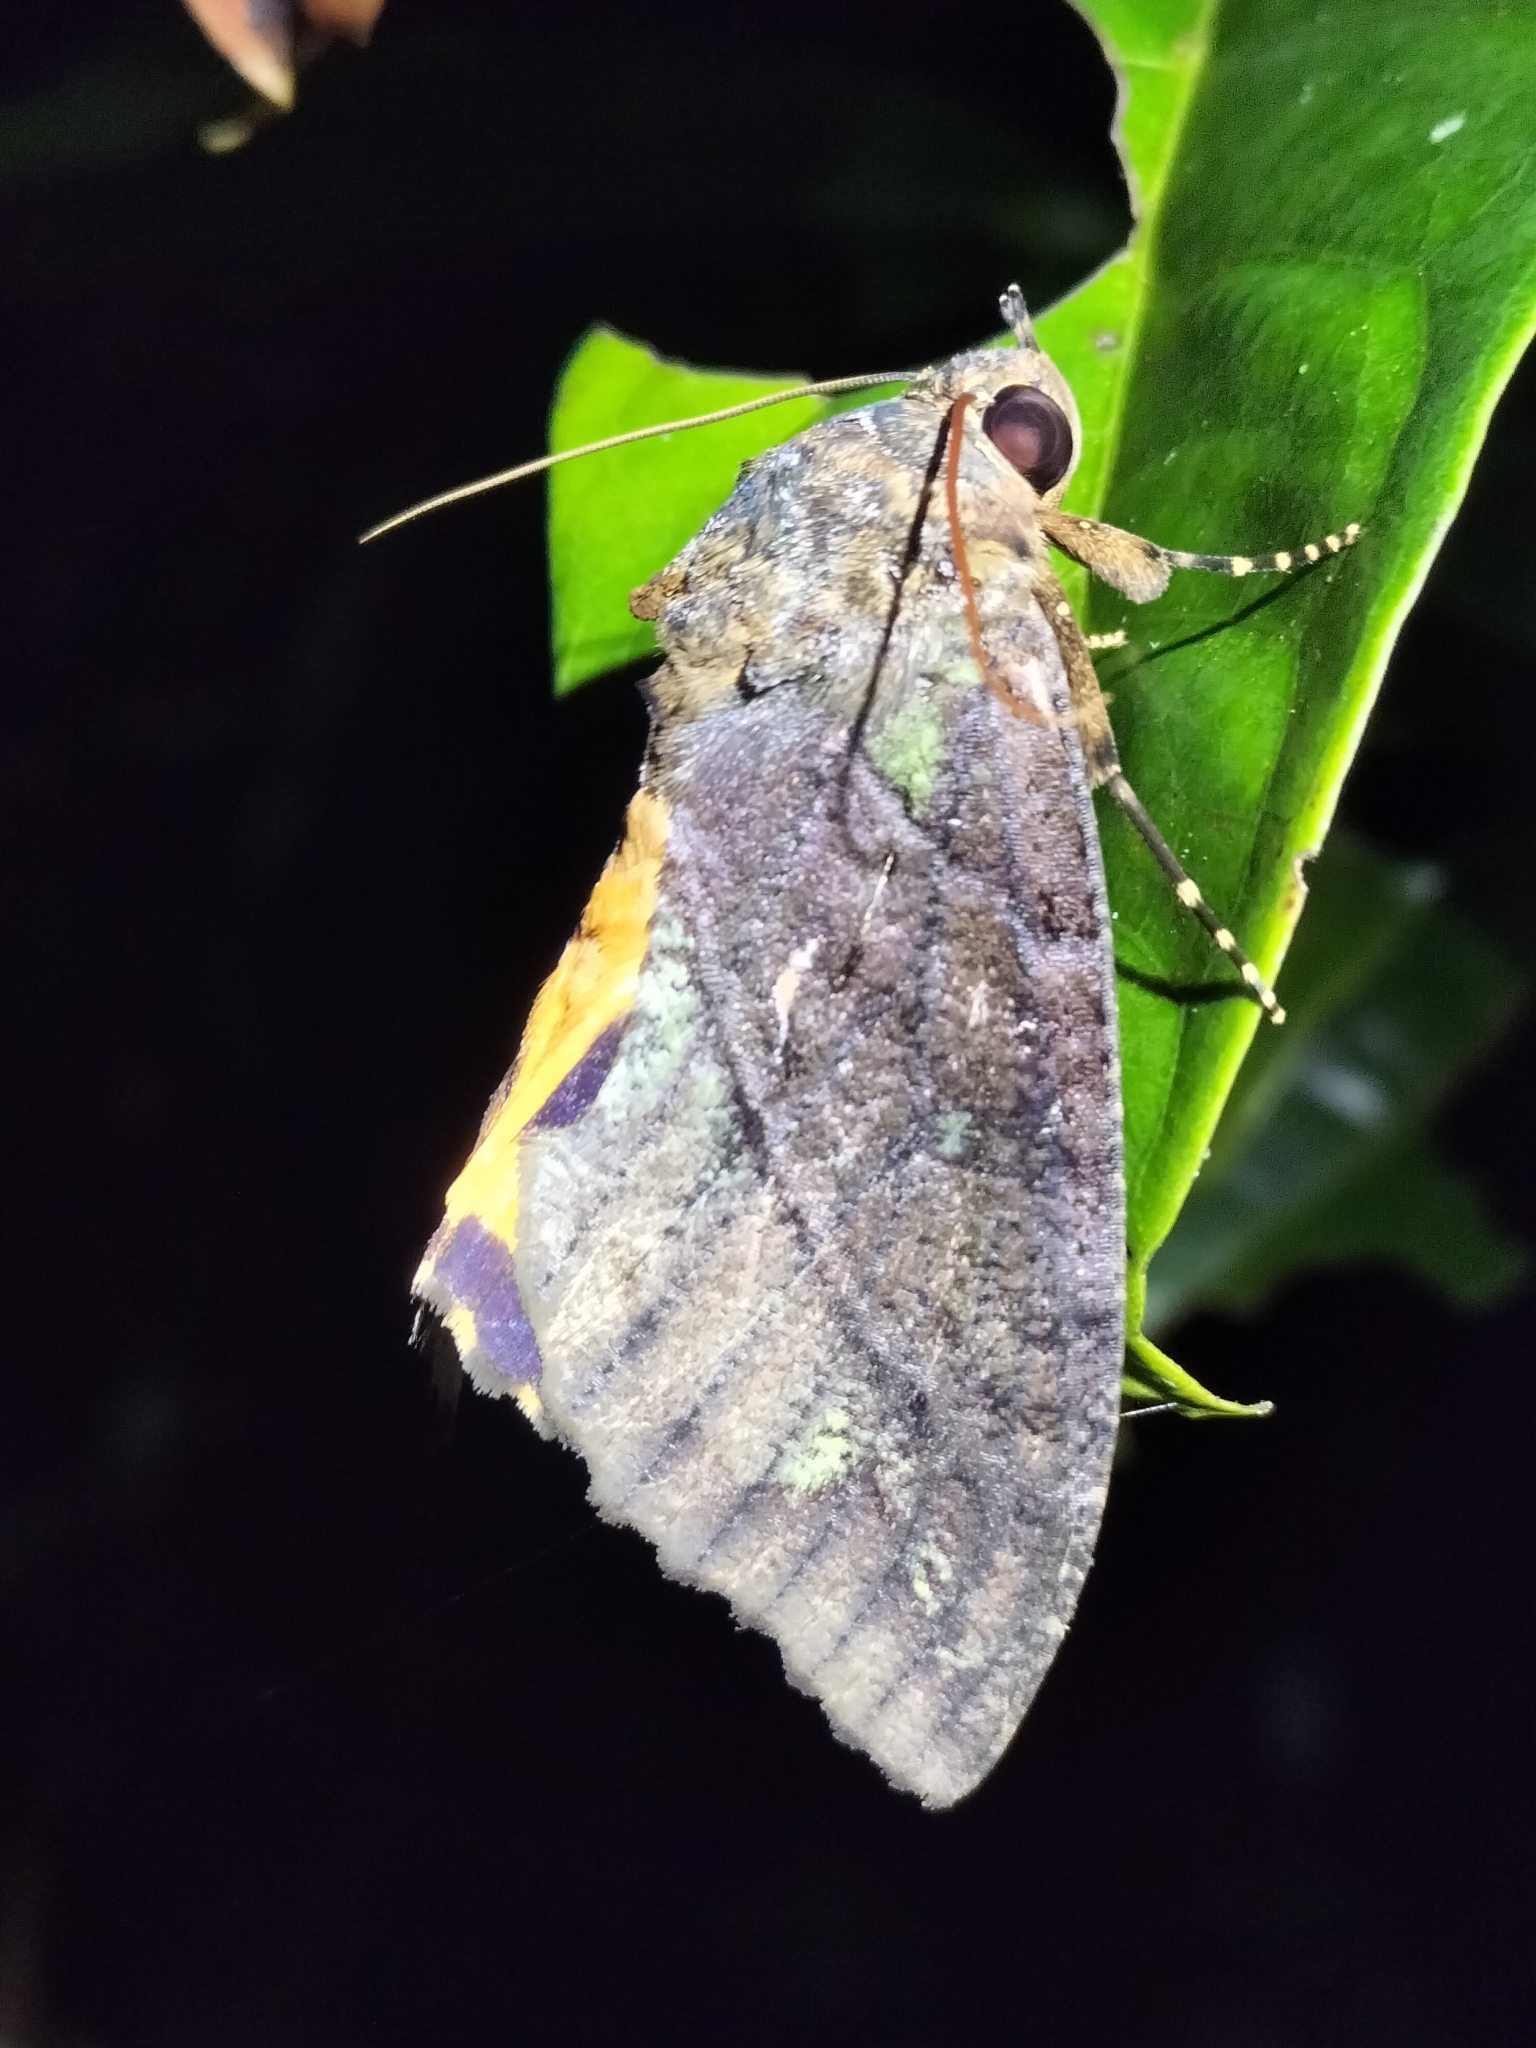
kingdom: Animalia
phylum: Arthropoda
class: Insecta
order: Lepidoptera
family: Erebidae
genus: Eudocima
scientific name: Eudocima jordani
